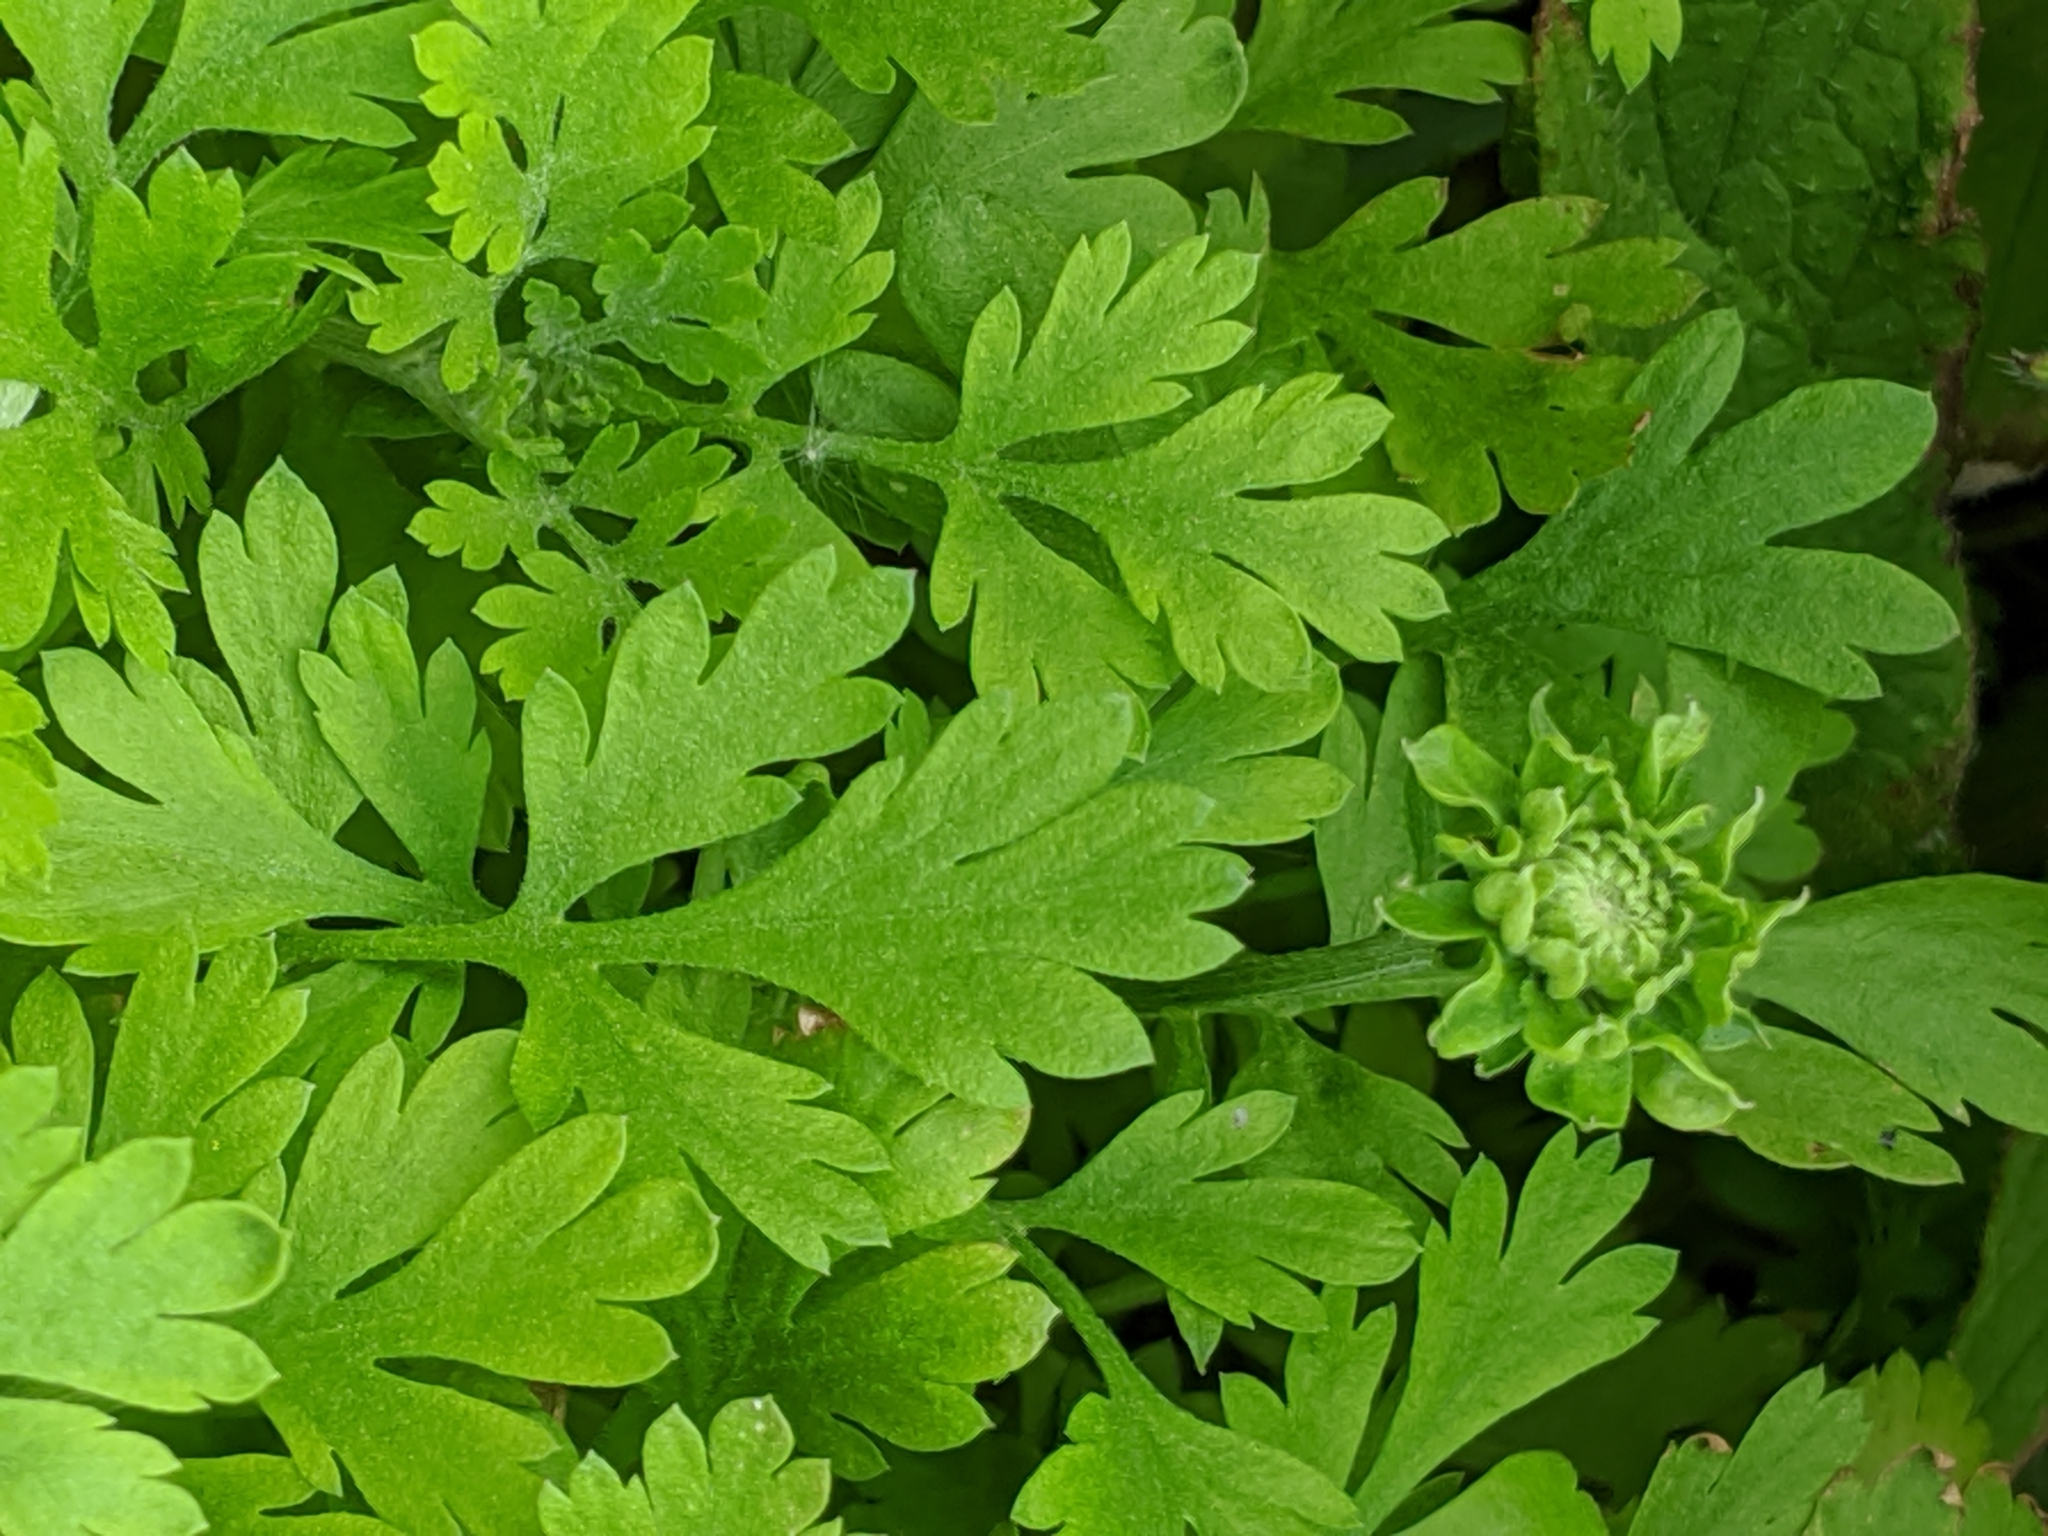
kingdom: Plantae
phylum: Tracheophyta
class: Magnoliopsida
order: Asterales
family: Asteraceae
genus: Tanacetum
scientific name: Tanacetum parthenium
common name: Feverfew
